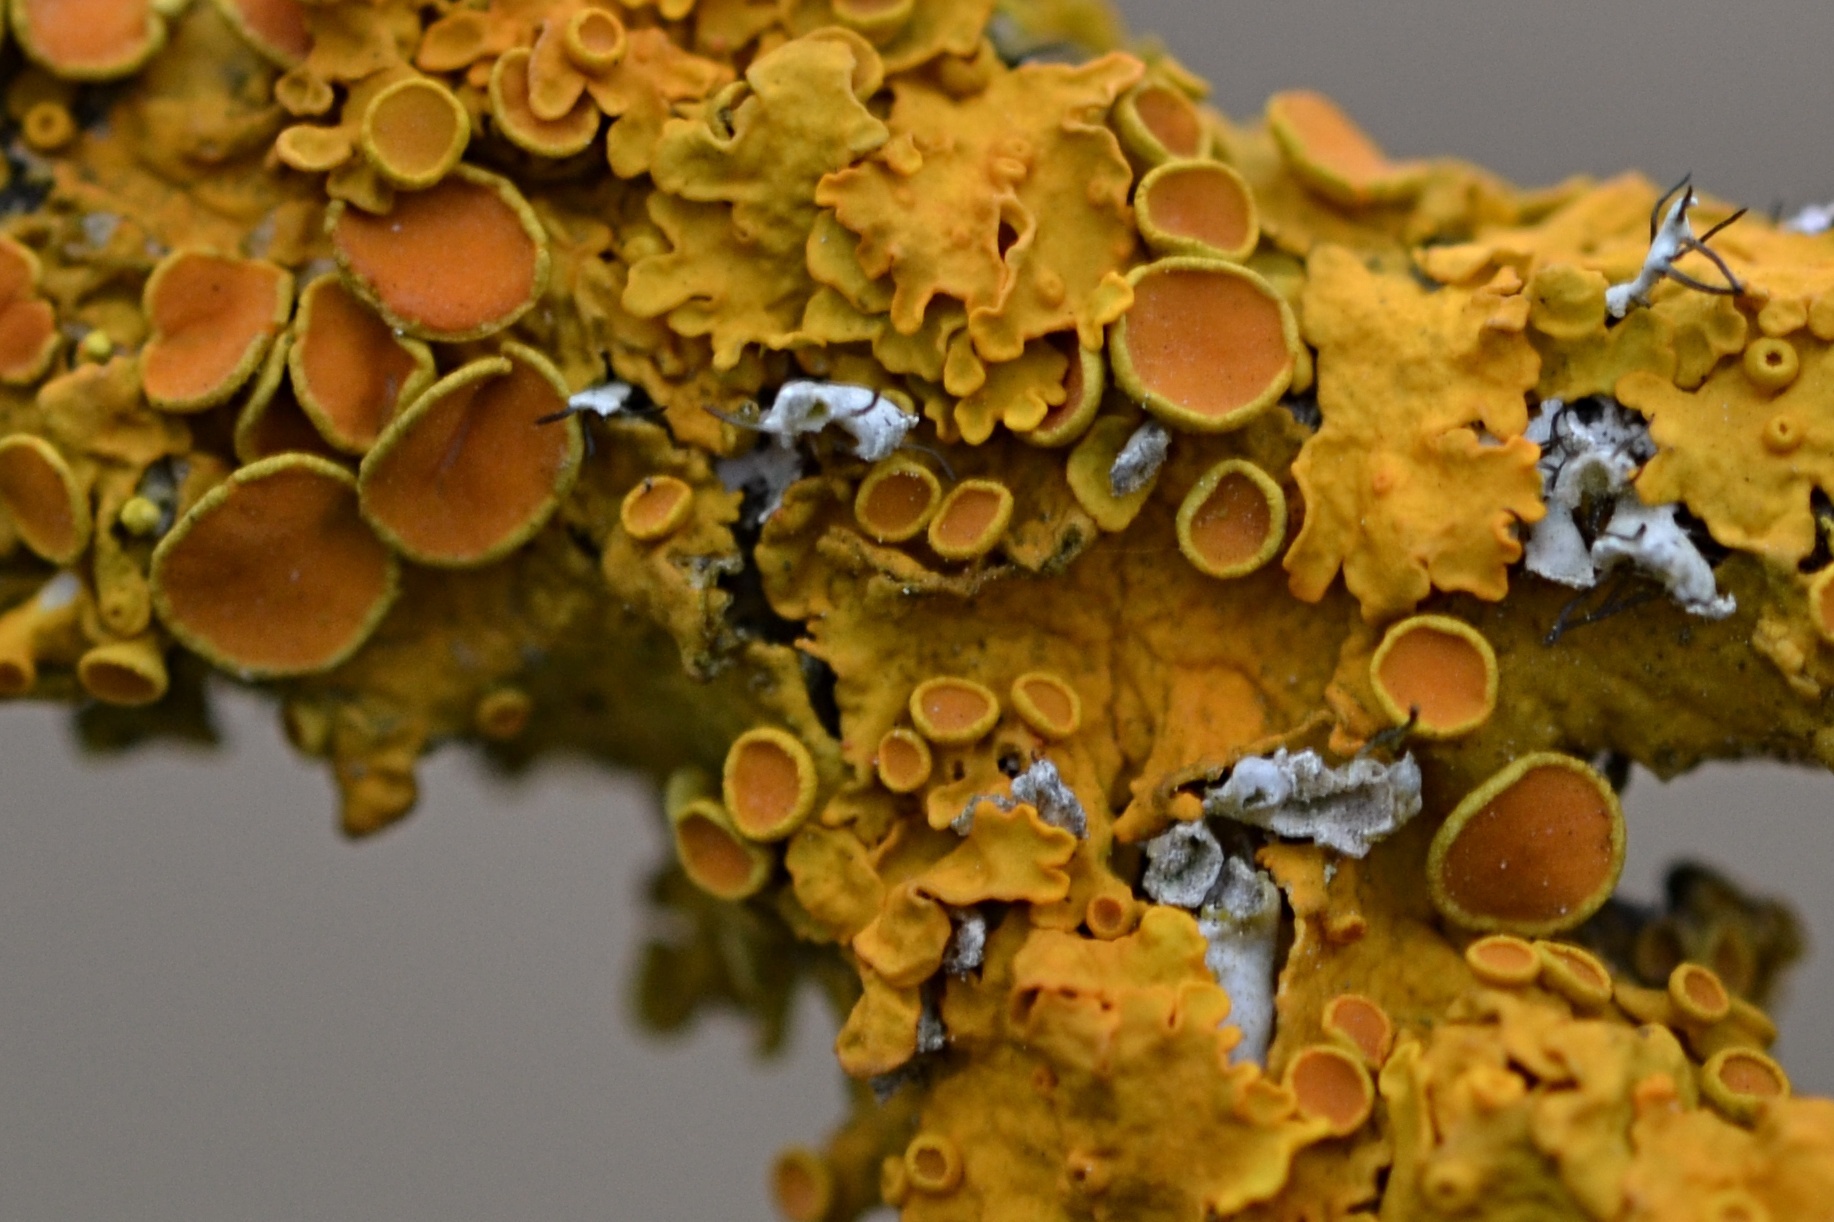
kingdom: Fungi
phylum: Ascomycota
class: Lecanoromycetes
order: Teloschistales
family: Teloschistaceae
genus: Xanthoria
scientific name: Xanthoria parietina
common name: Common orange lichen
